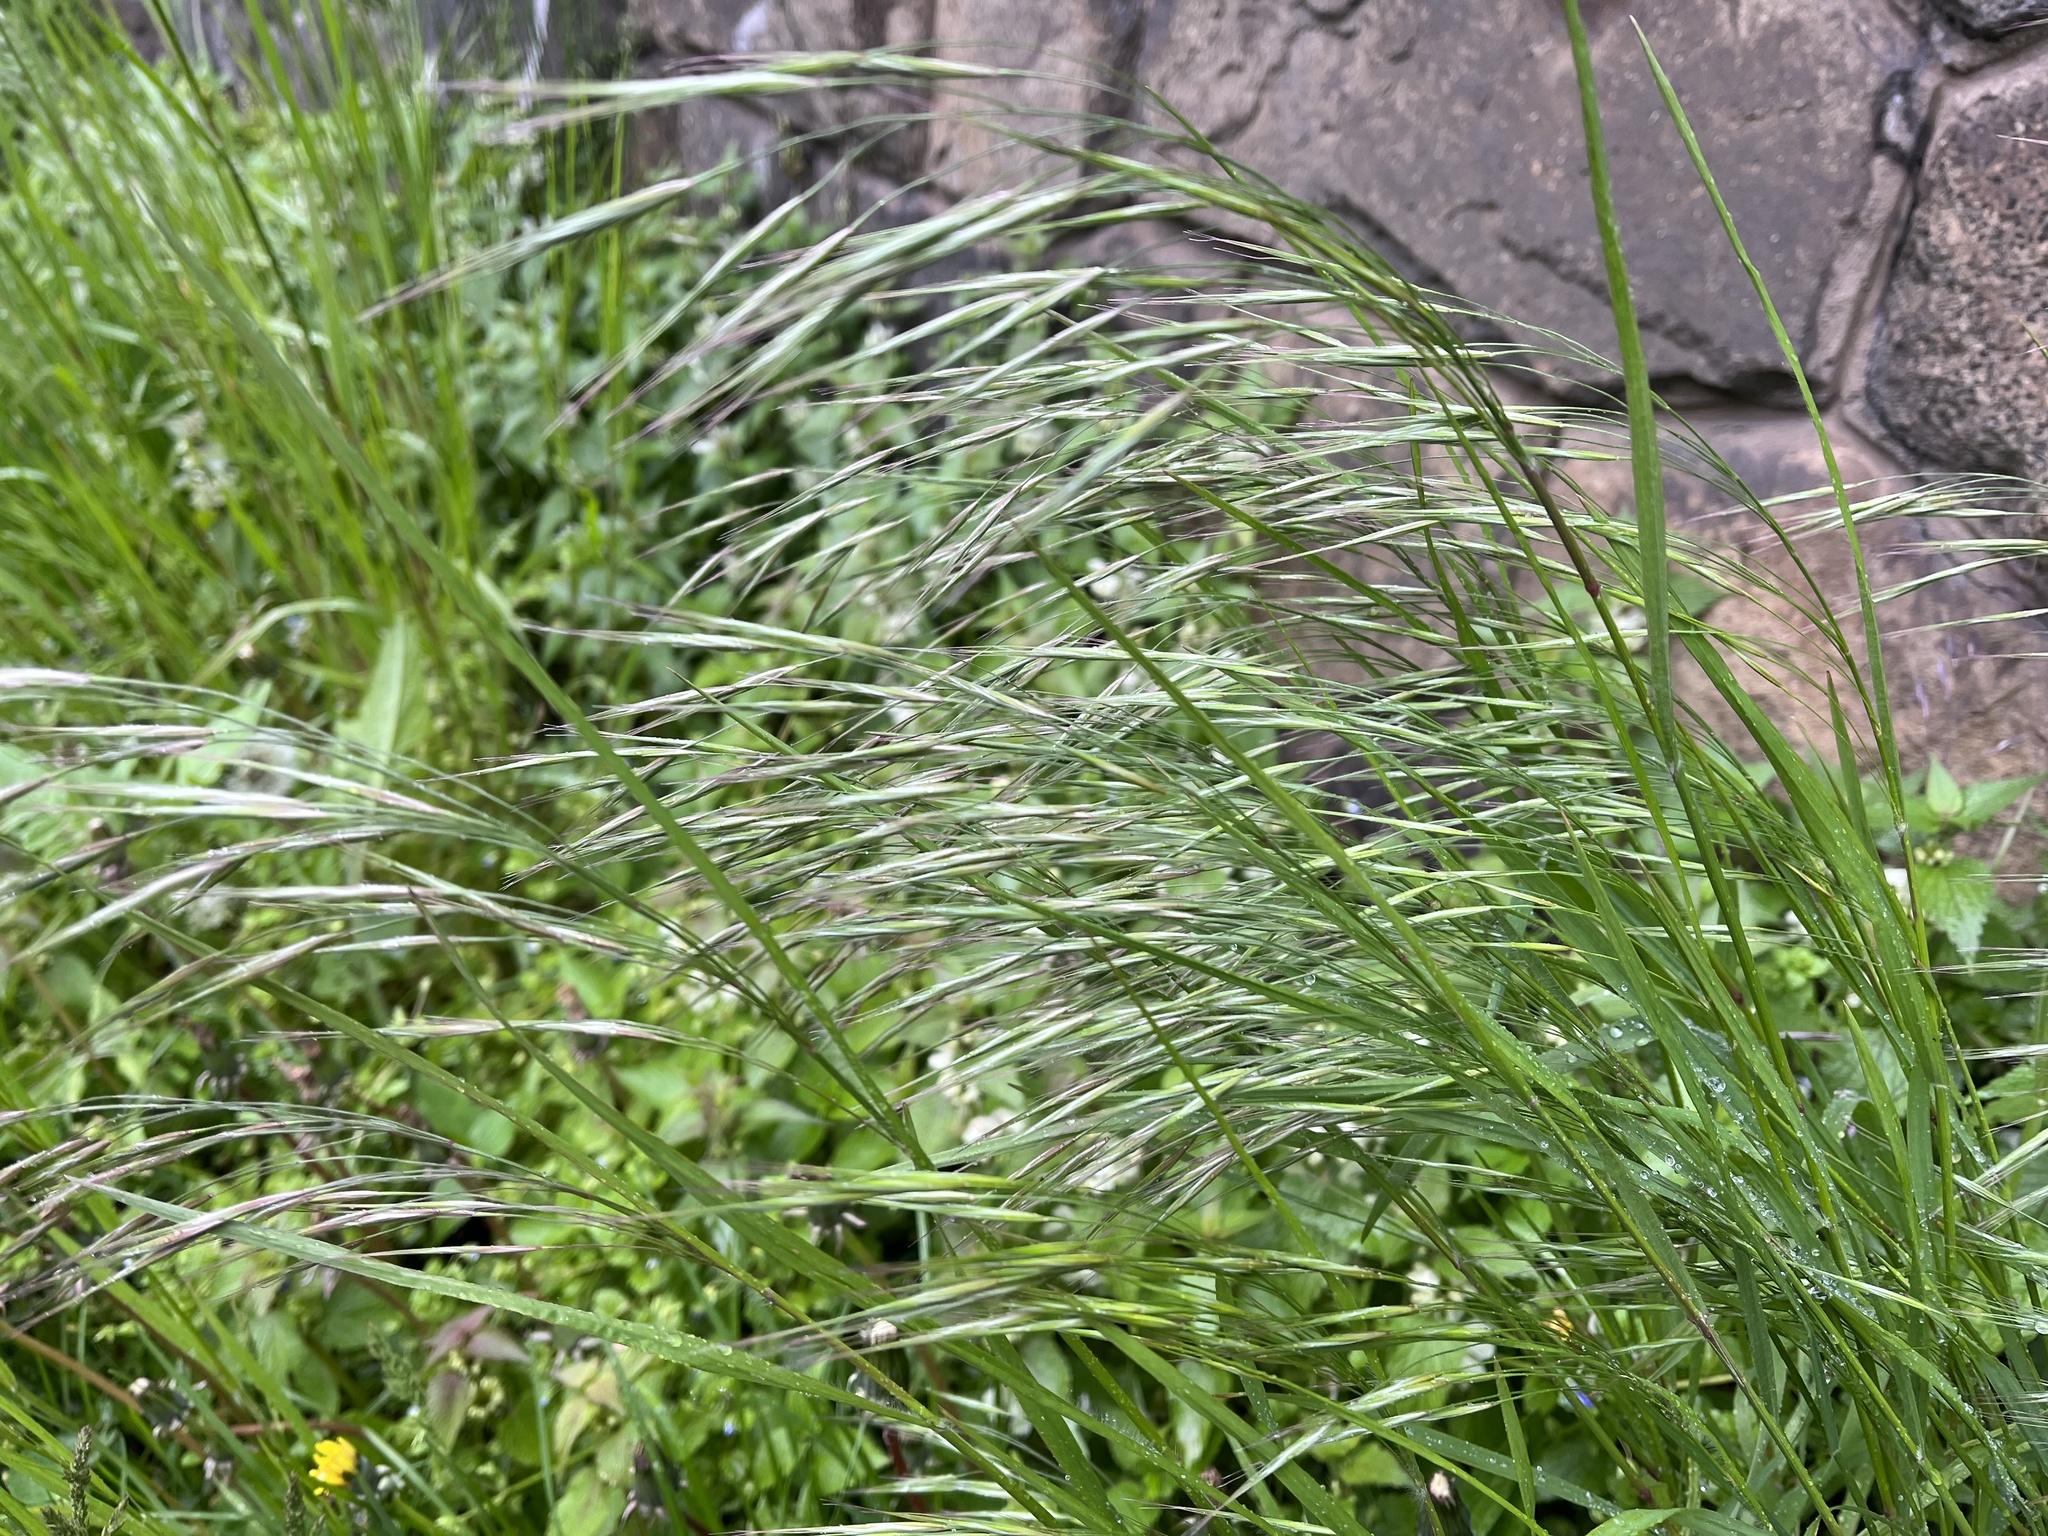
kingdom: Plantae
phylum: Tracheophyta
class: Liliopsida
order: Poales
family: Poaceae
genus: Bromus
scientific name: Bromus sterilis
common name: Poverty brome
